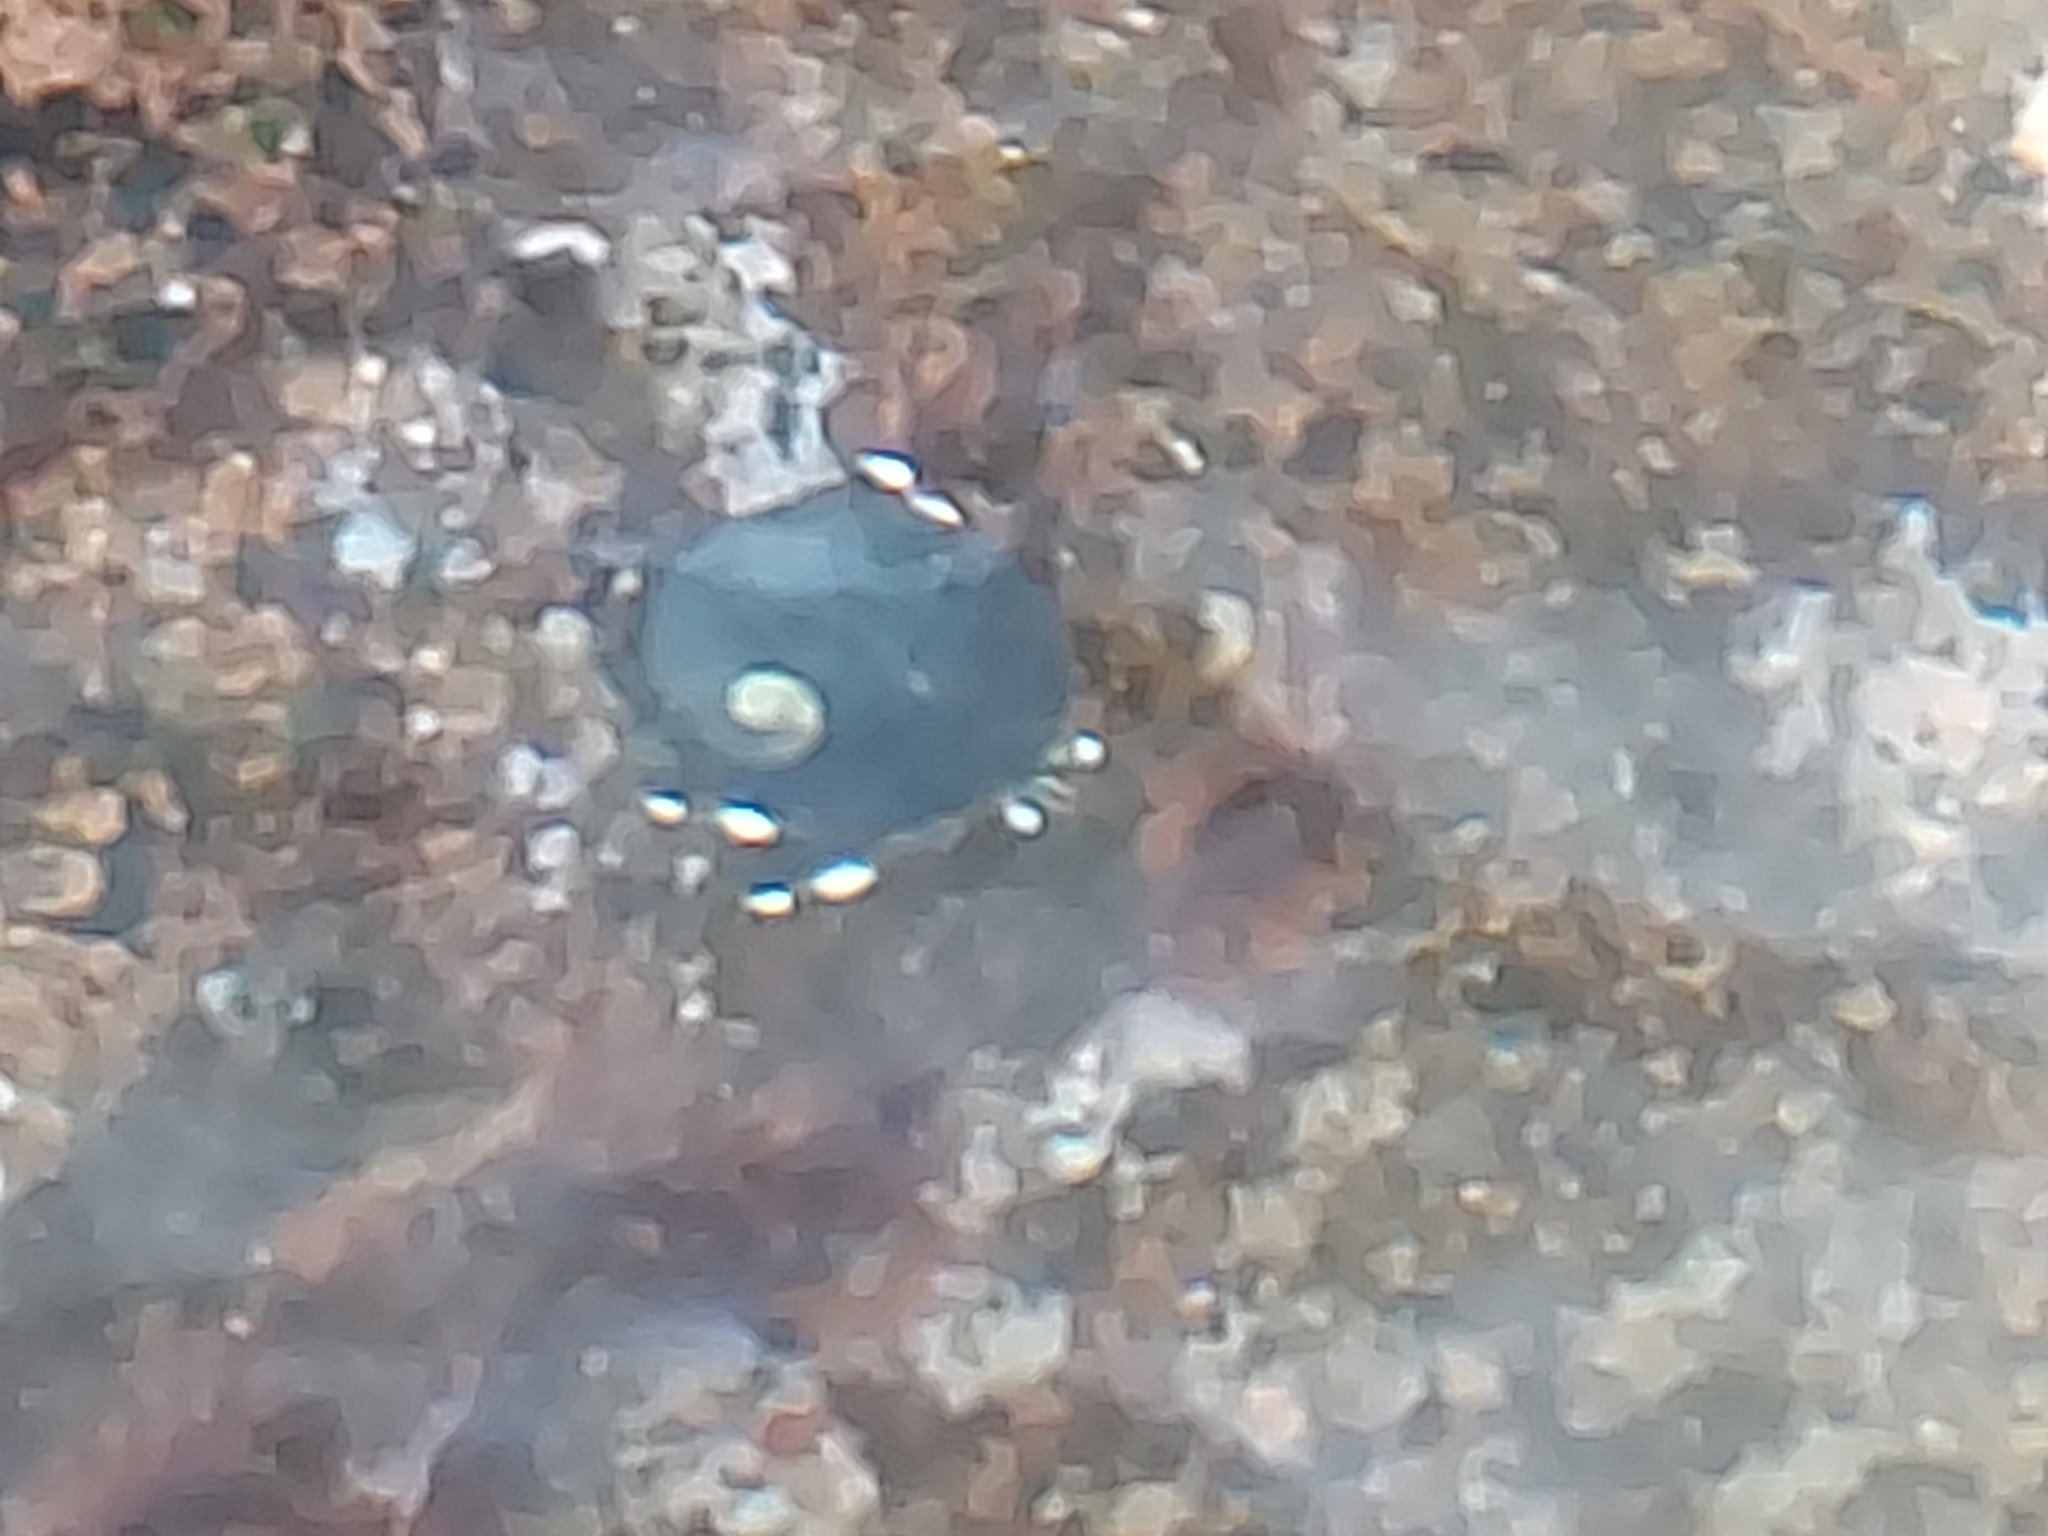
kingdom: Animalia
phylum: Arthropoda
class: Malacostraca
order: Decapoda
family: Diogenidae
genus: Calcinus
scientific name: Calcinus seurati
